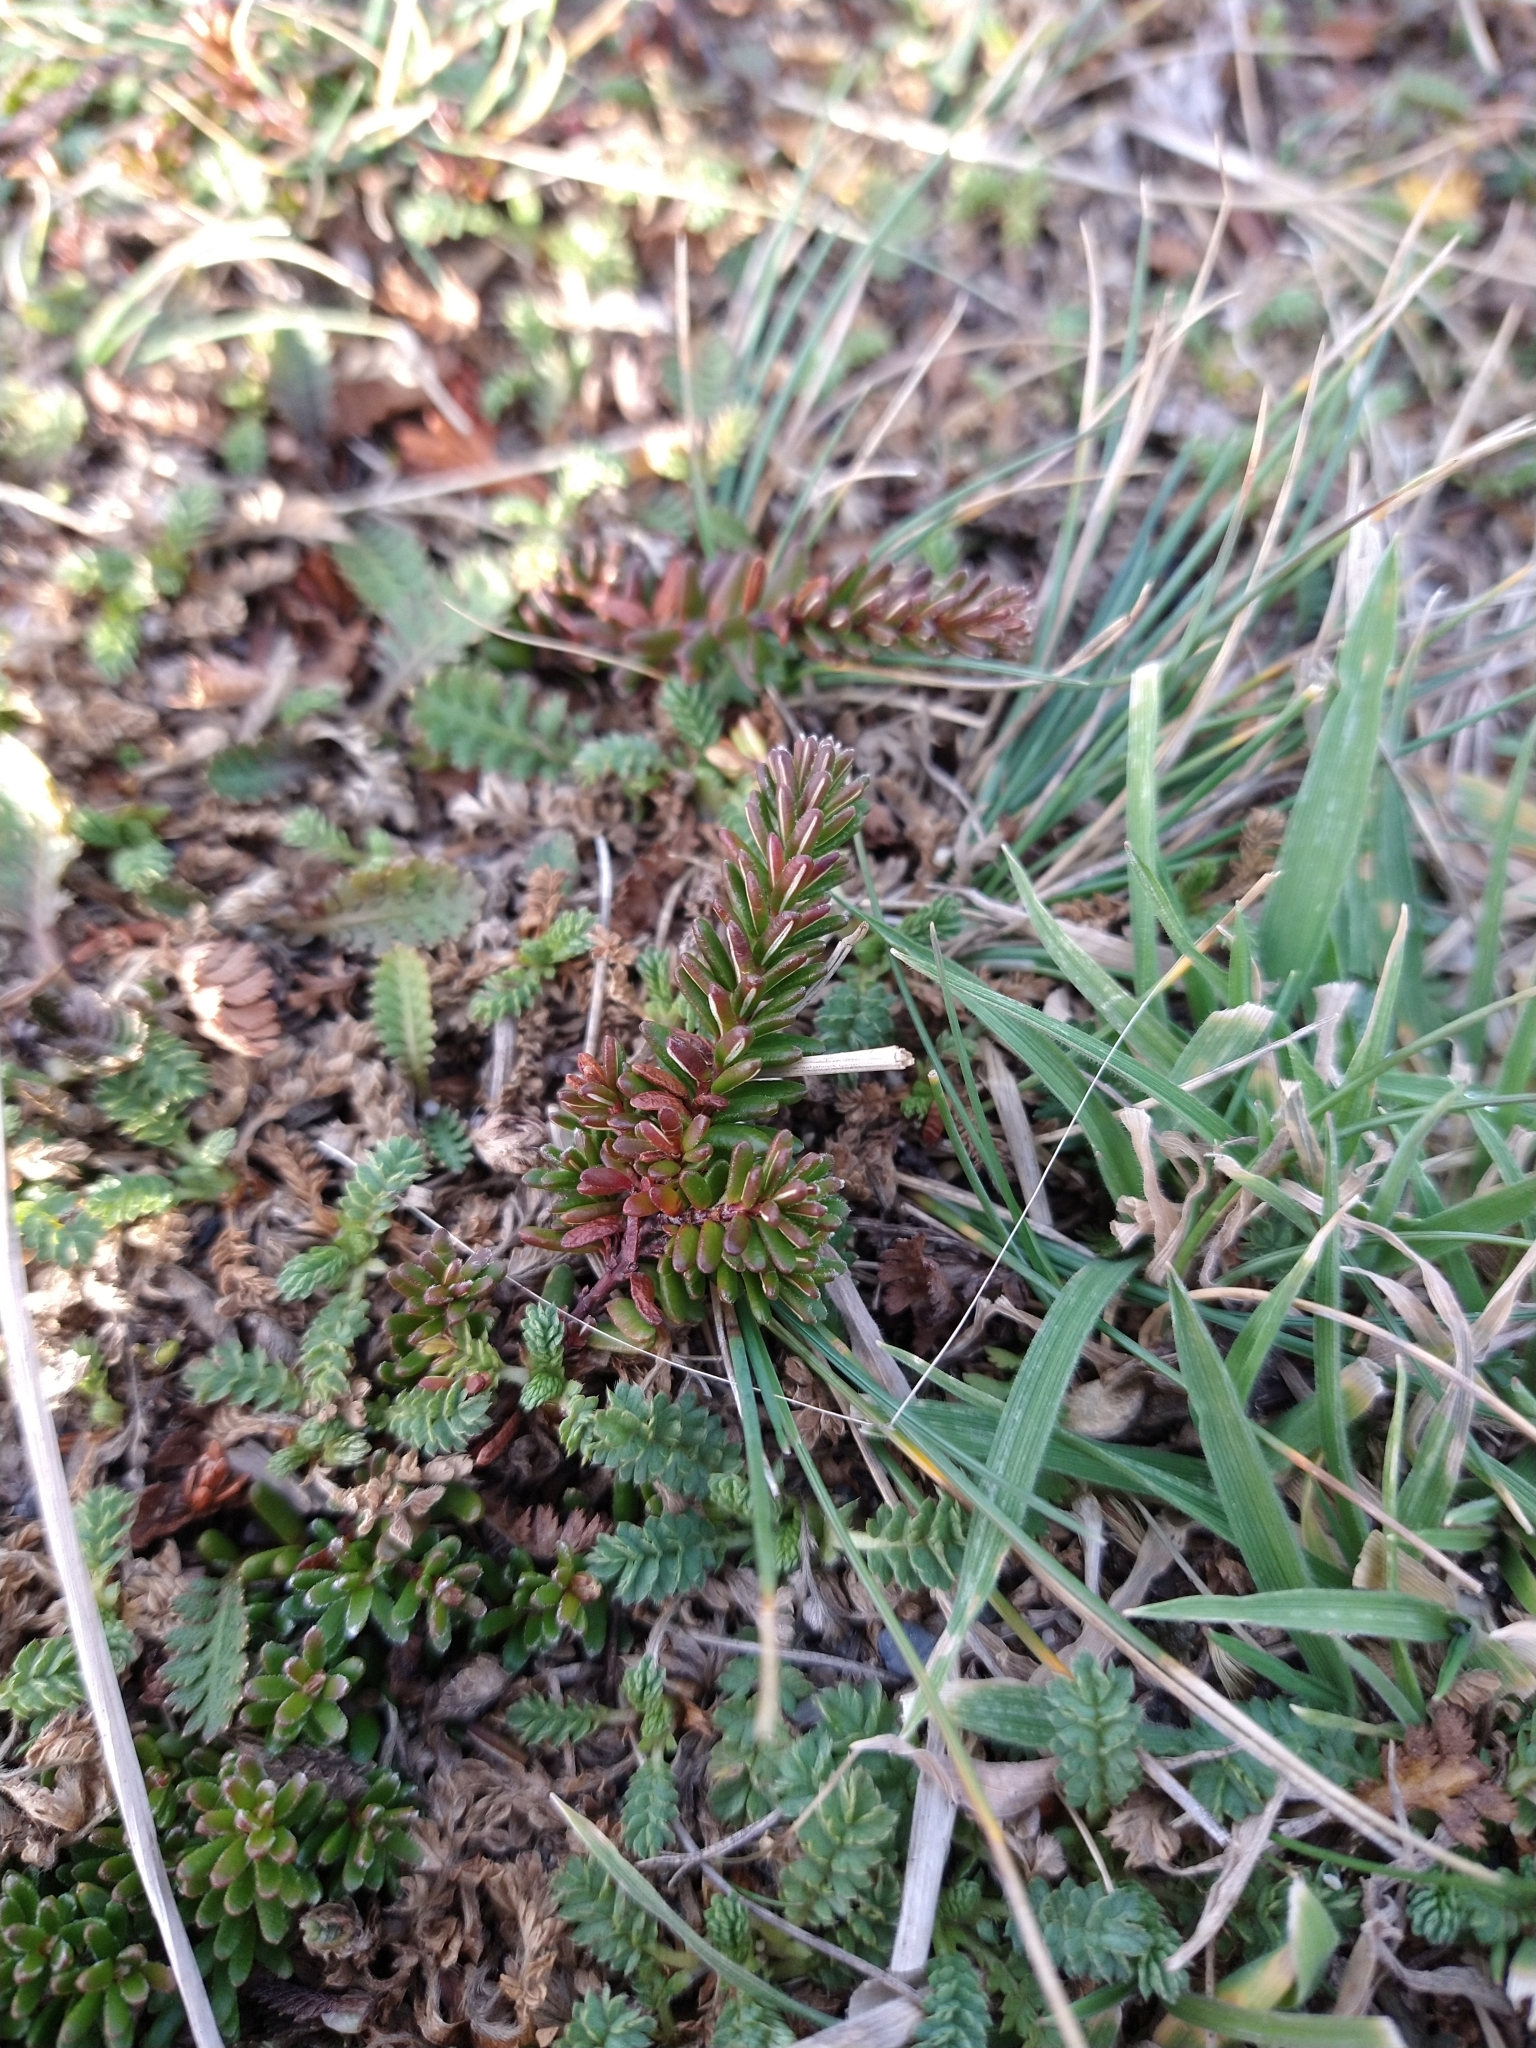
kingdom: Plantae
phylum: Tracheophyta
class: Magnoliopsida
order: Ericales
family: Ericaceae
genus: Empetrum
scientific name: Empetrum rubrum
